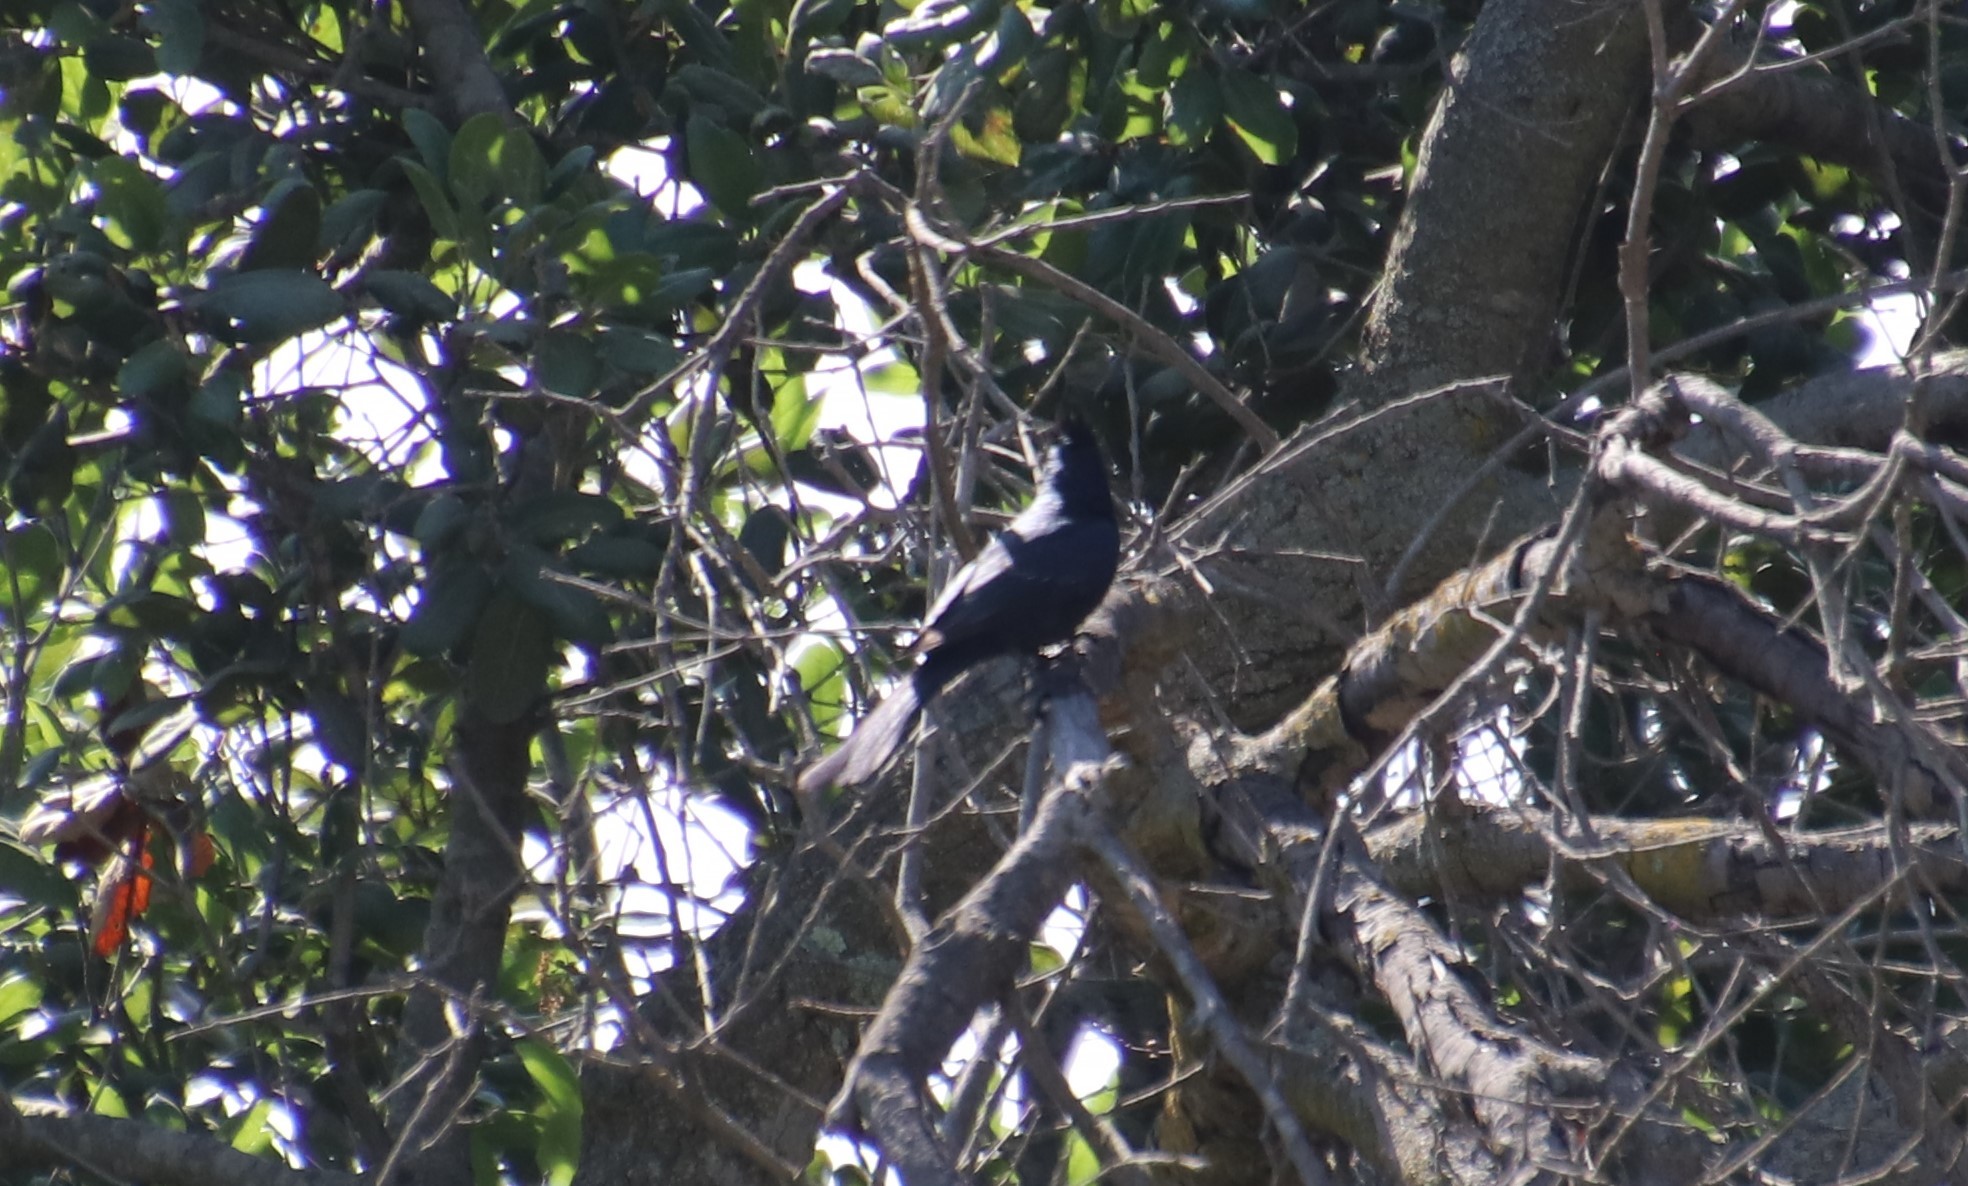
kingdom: Animalia
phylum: Chordata
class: Aves
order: Passeriformes
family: Ptilogonatidae
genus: Phainopepla
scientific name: Phainopepla nitens
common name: Phainopepla
